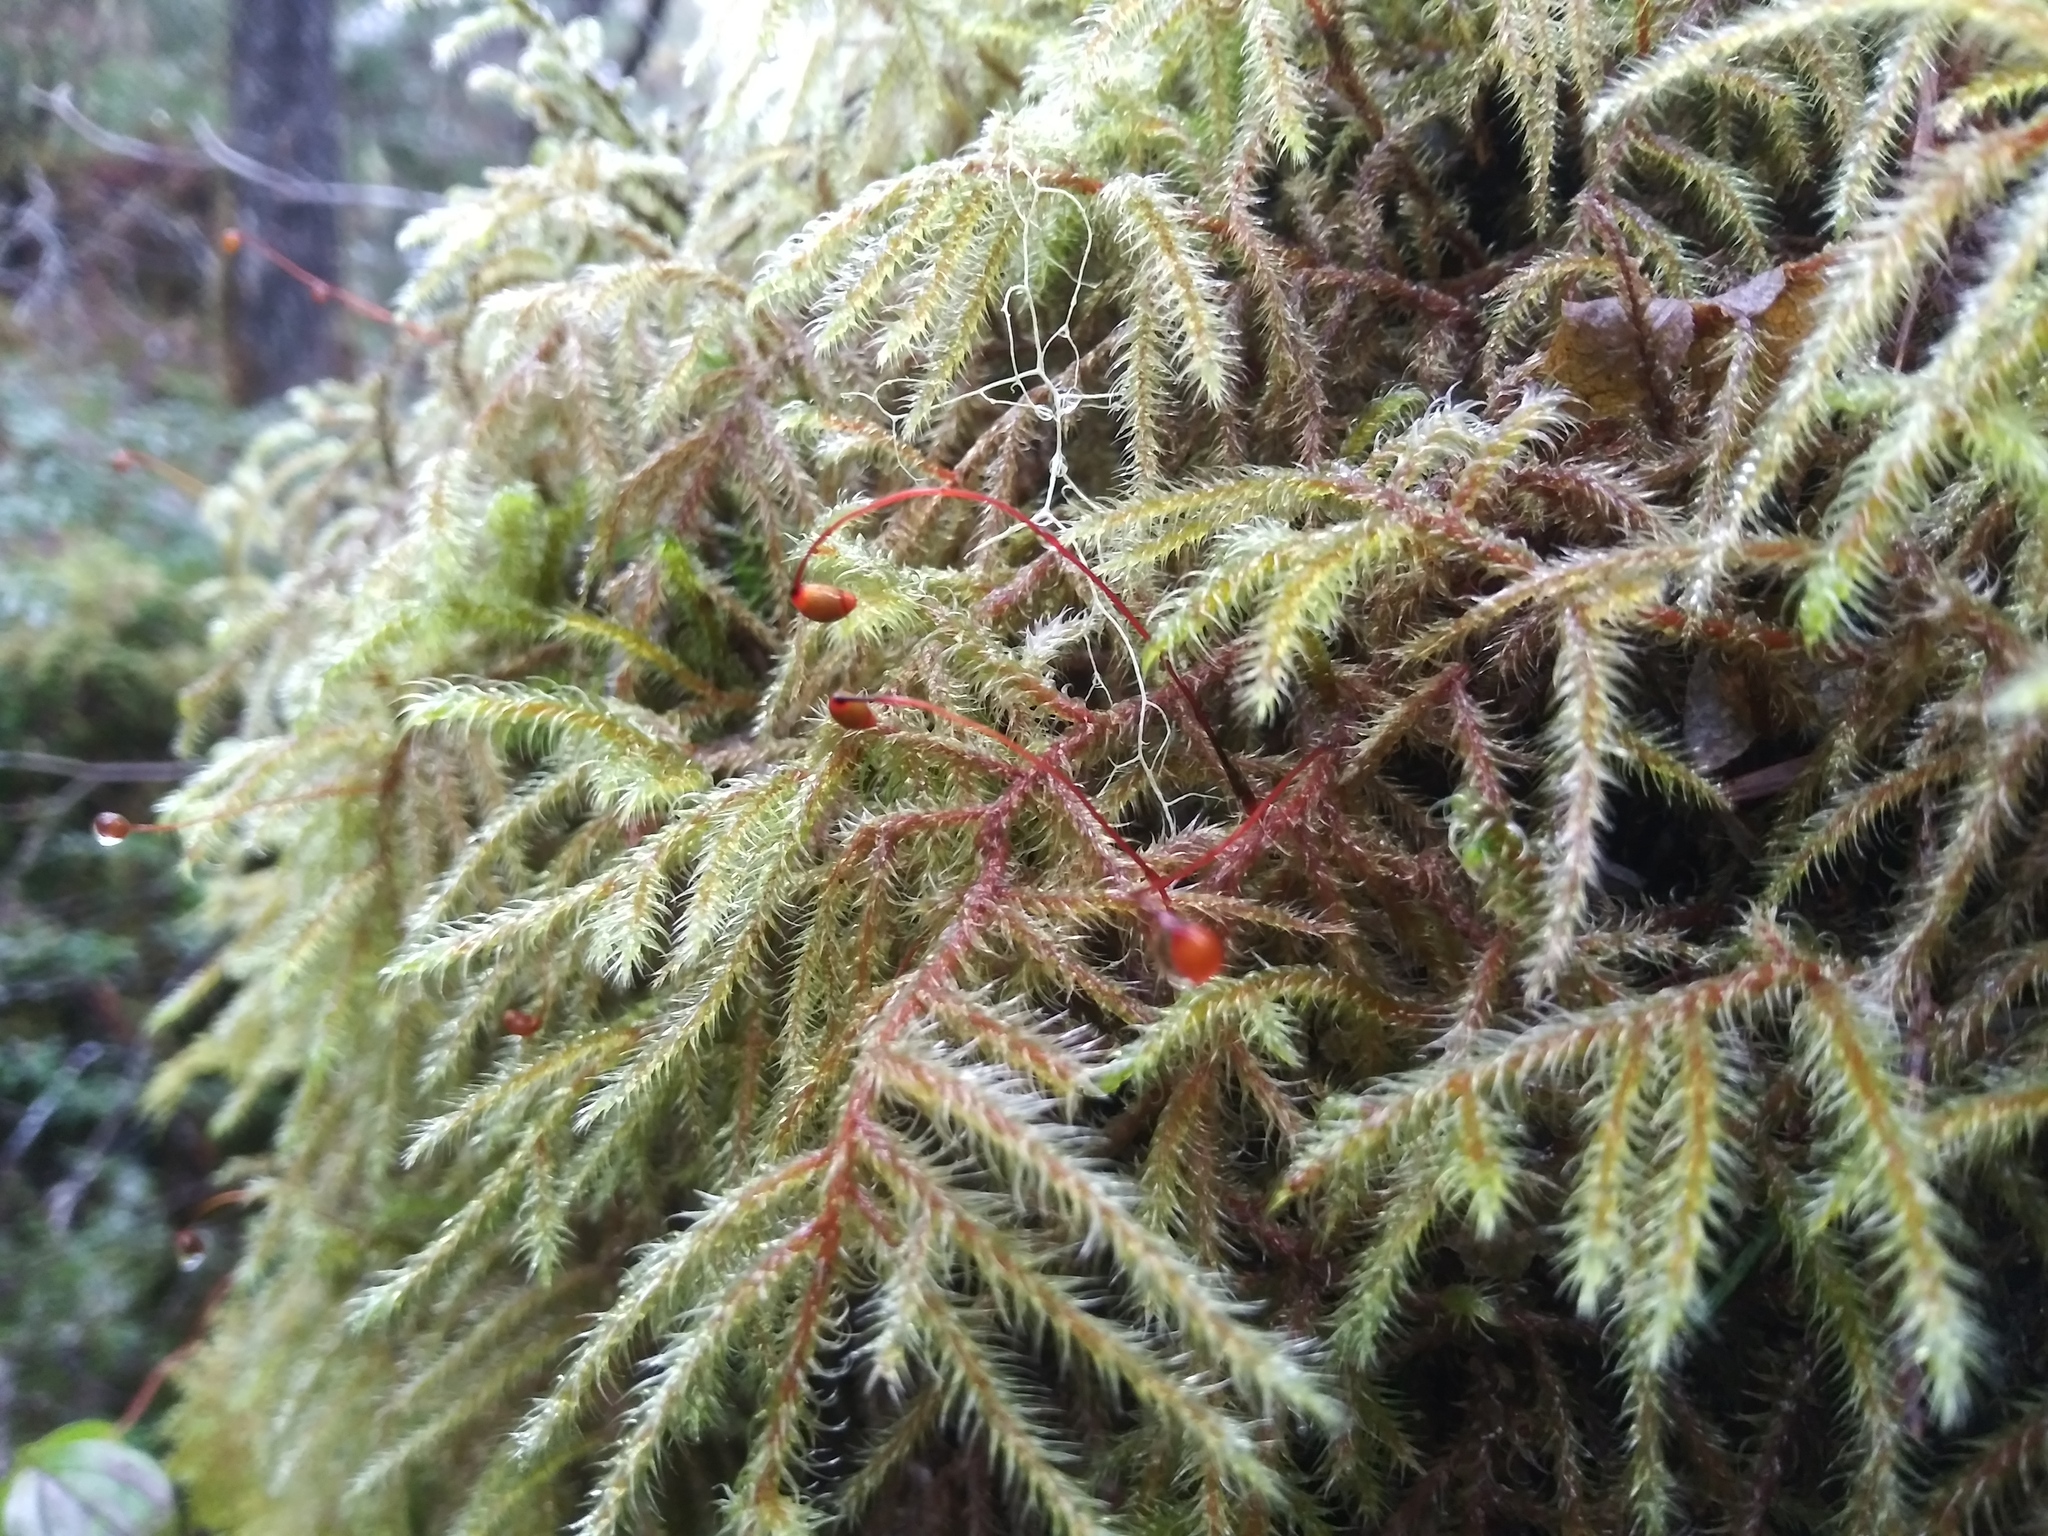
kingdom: Plantae
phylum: Bryophyta
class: Bryopsida
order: Hypnales
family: Hylocomiaceae
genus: Rhytidiadelphus
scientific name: Rhytidiadelphus loreus
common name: Lanky moss
